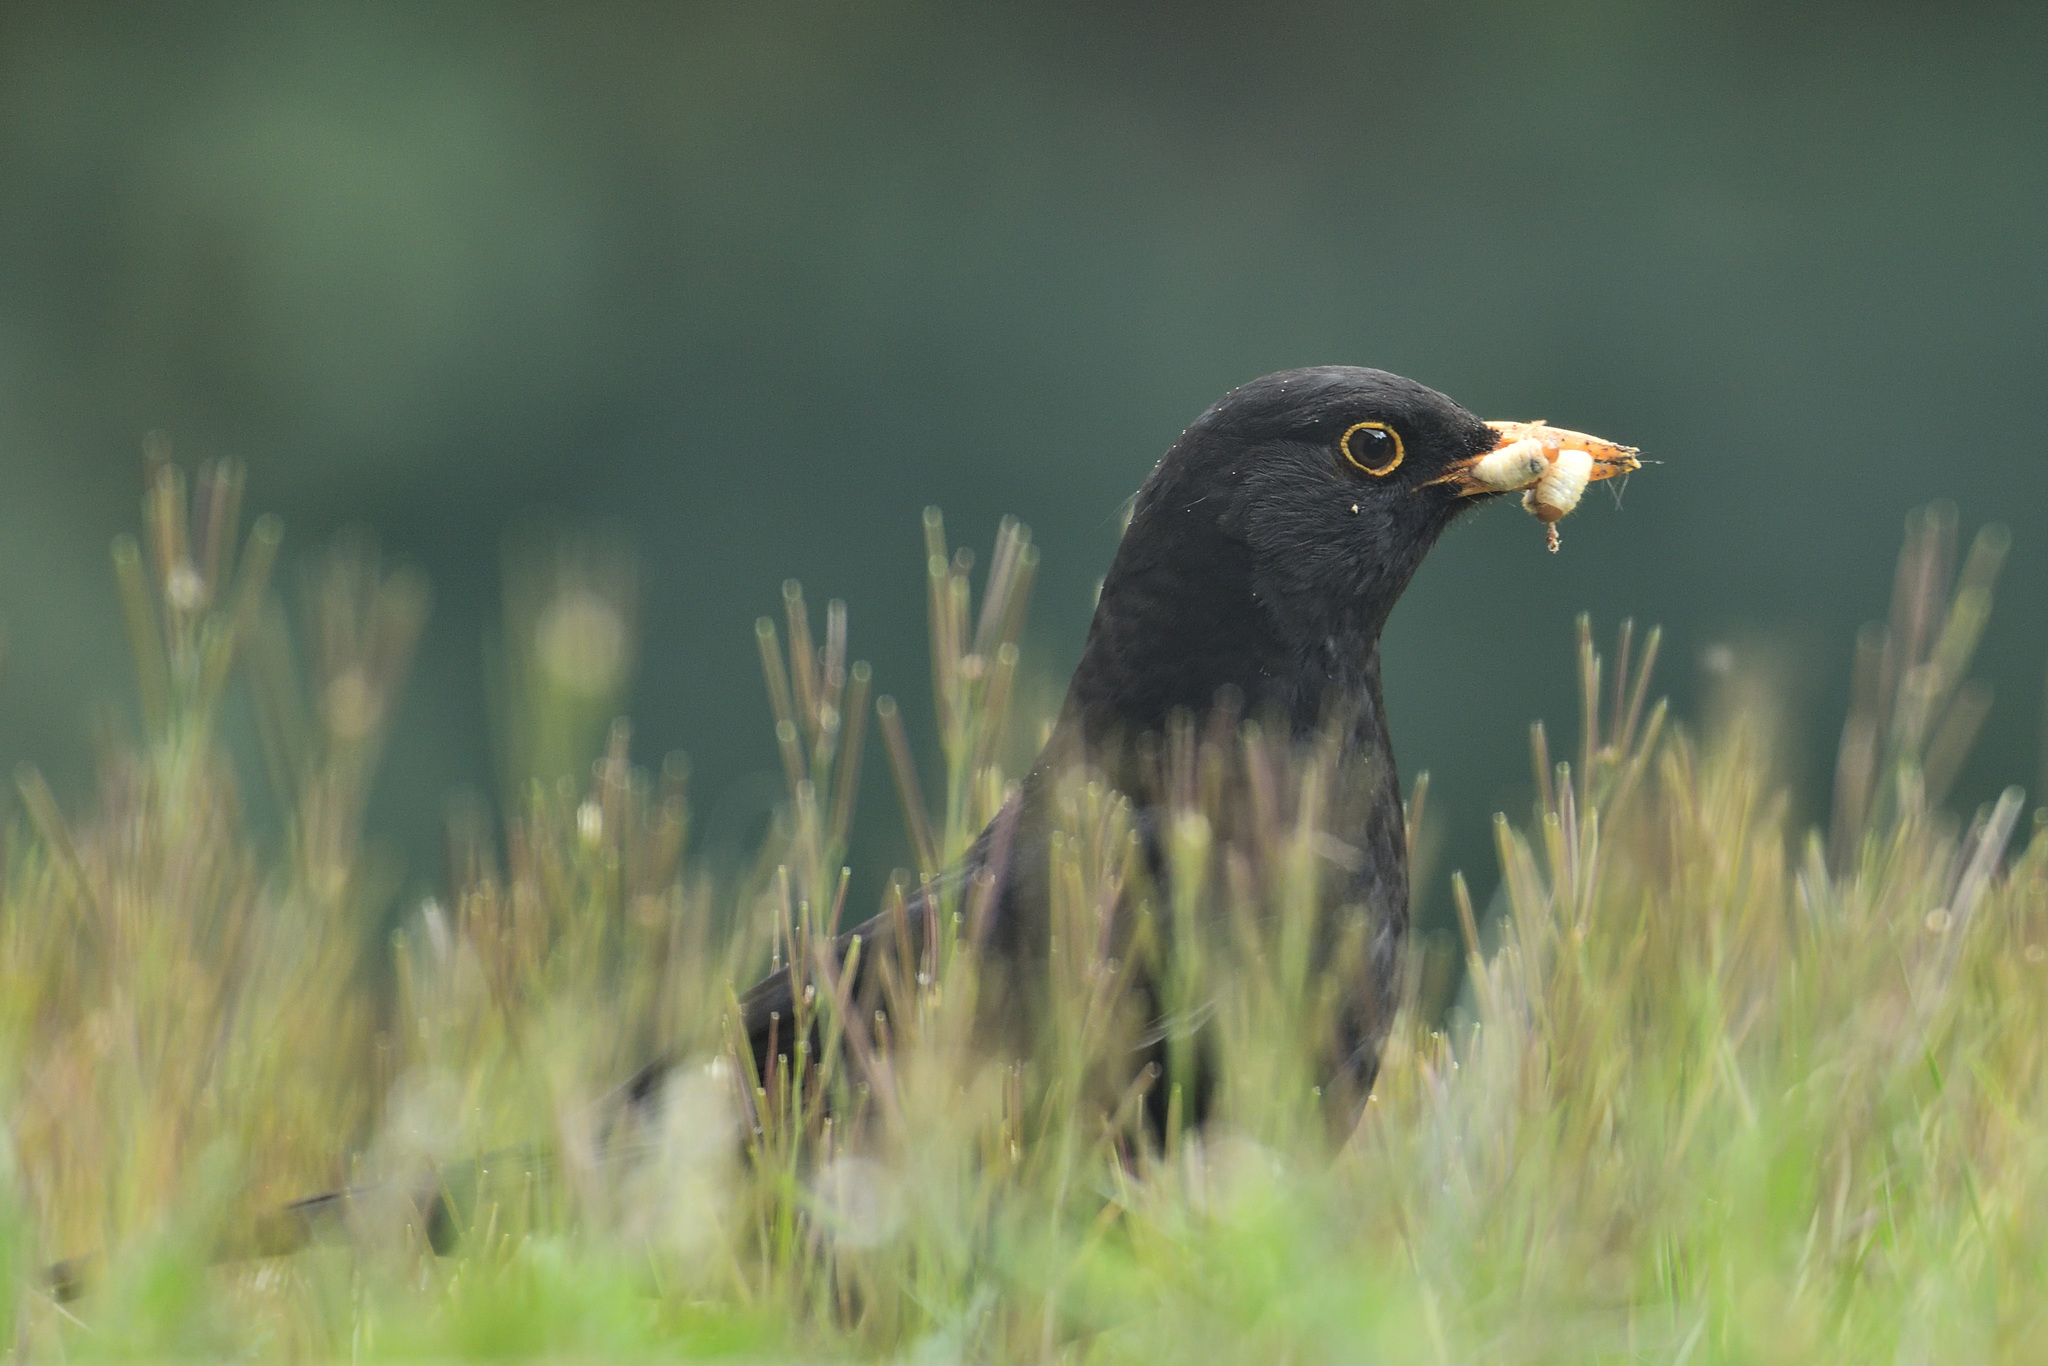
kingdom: Animalia
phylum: Chordata
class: Aves
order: Passeriformes
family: Turdidae
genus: Turdus
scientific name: Turdus merula
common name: Common blackbird
